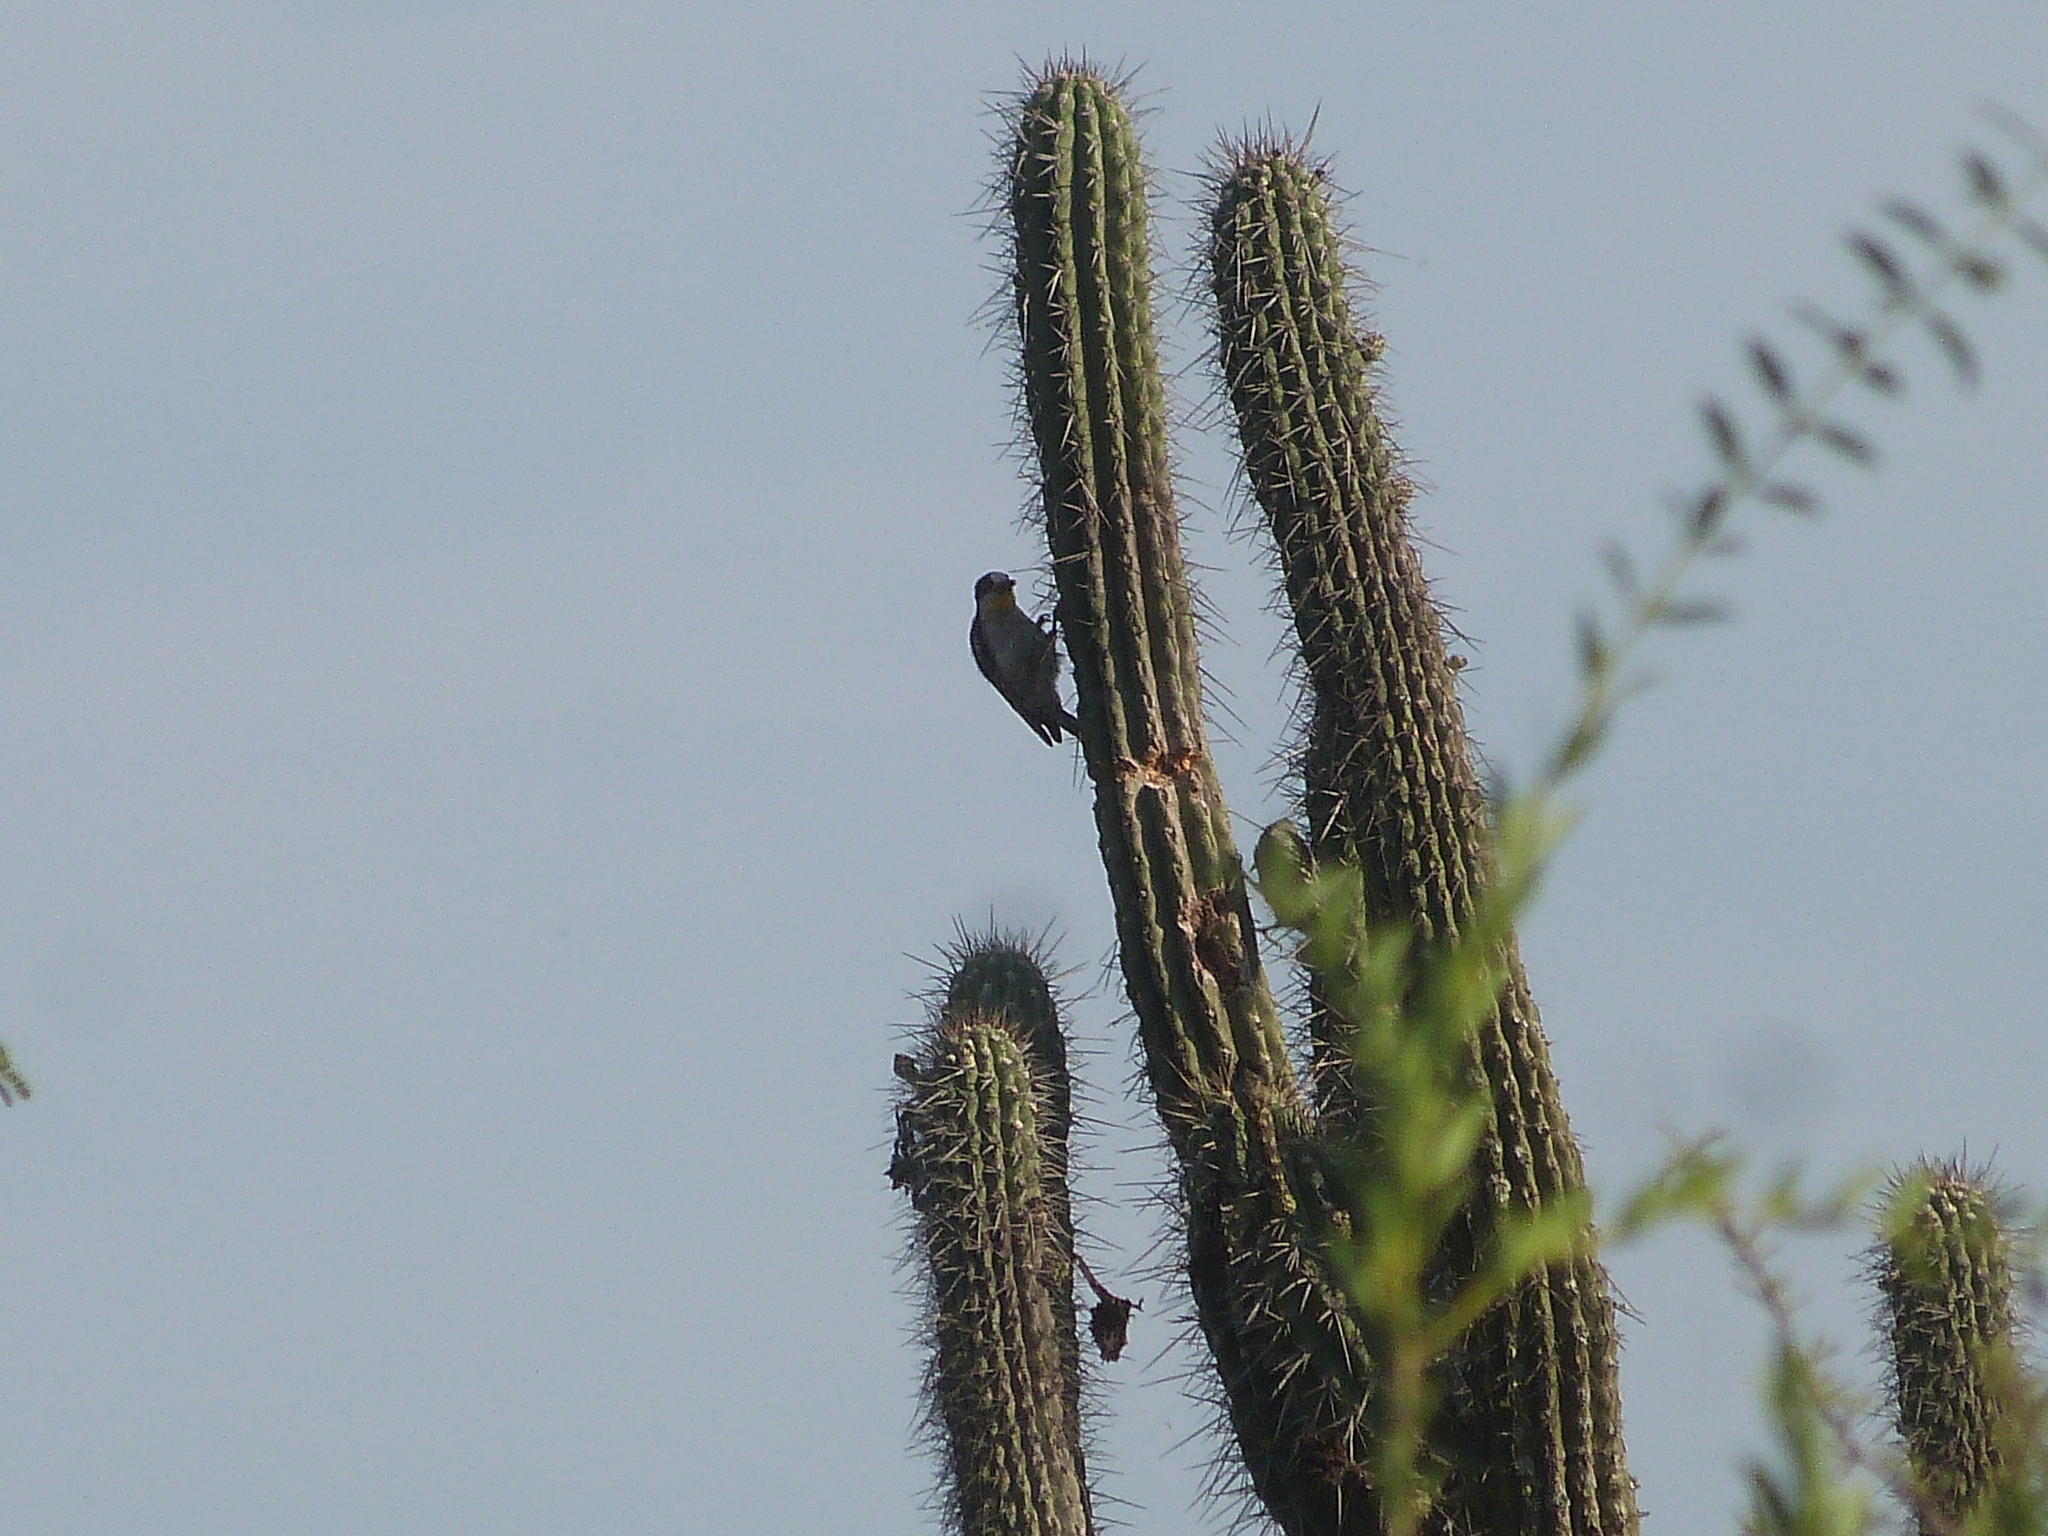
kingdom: Animalia
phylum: Chordata
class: Aves
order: Piciformes
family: Picidae
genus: Melanerpes
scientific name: Melanerpes cactorum
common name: White-fronted woodpecker
